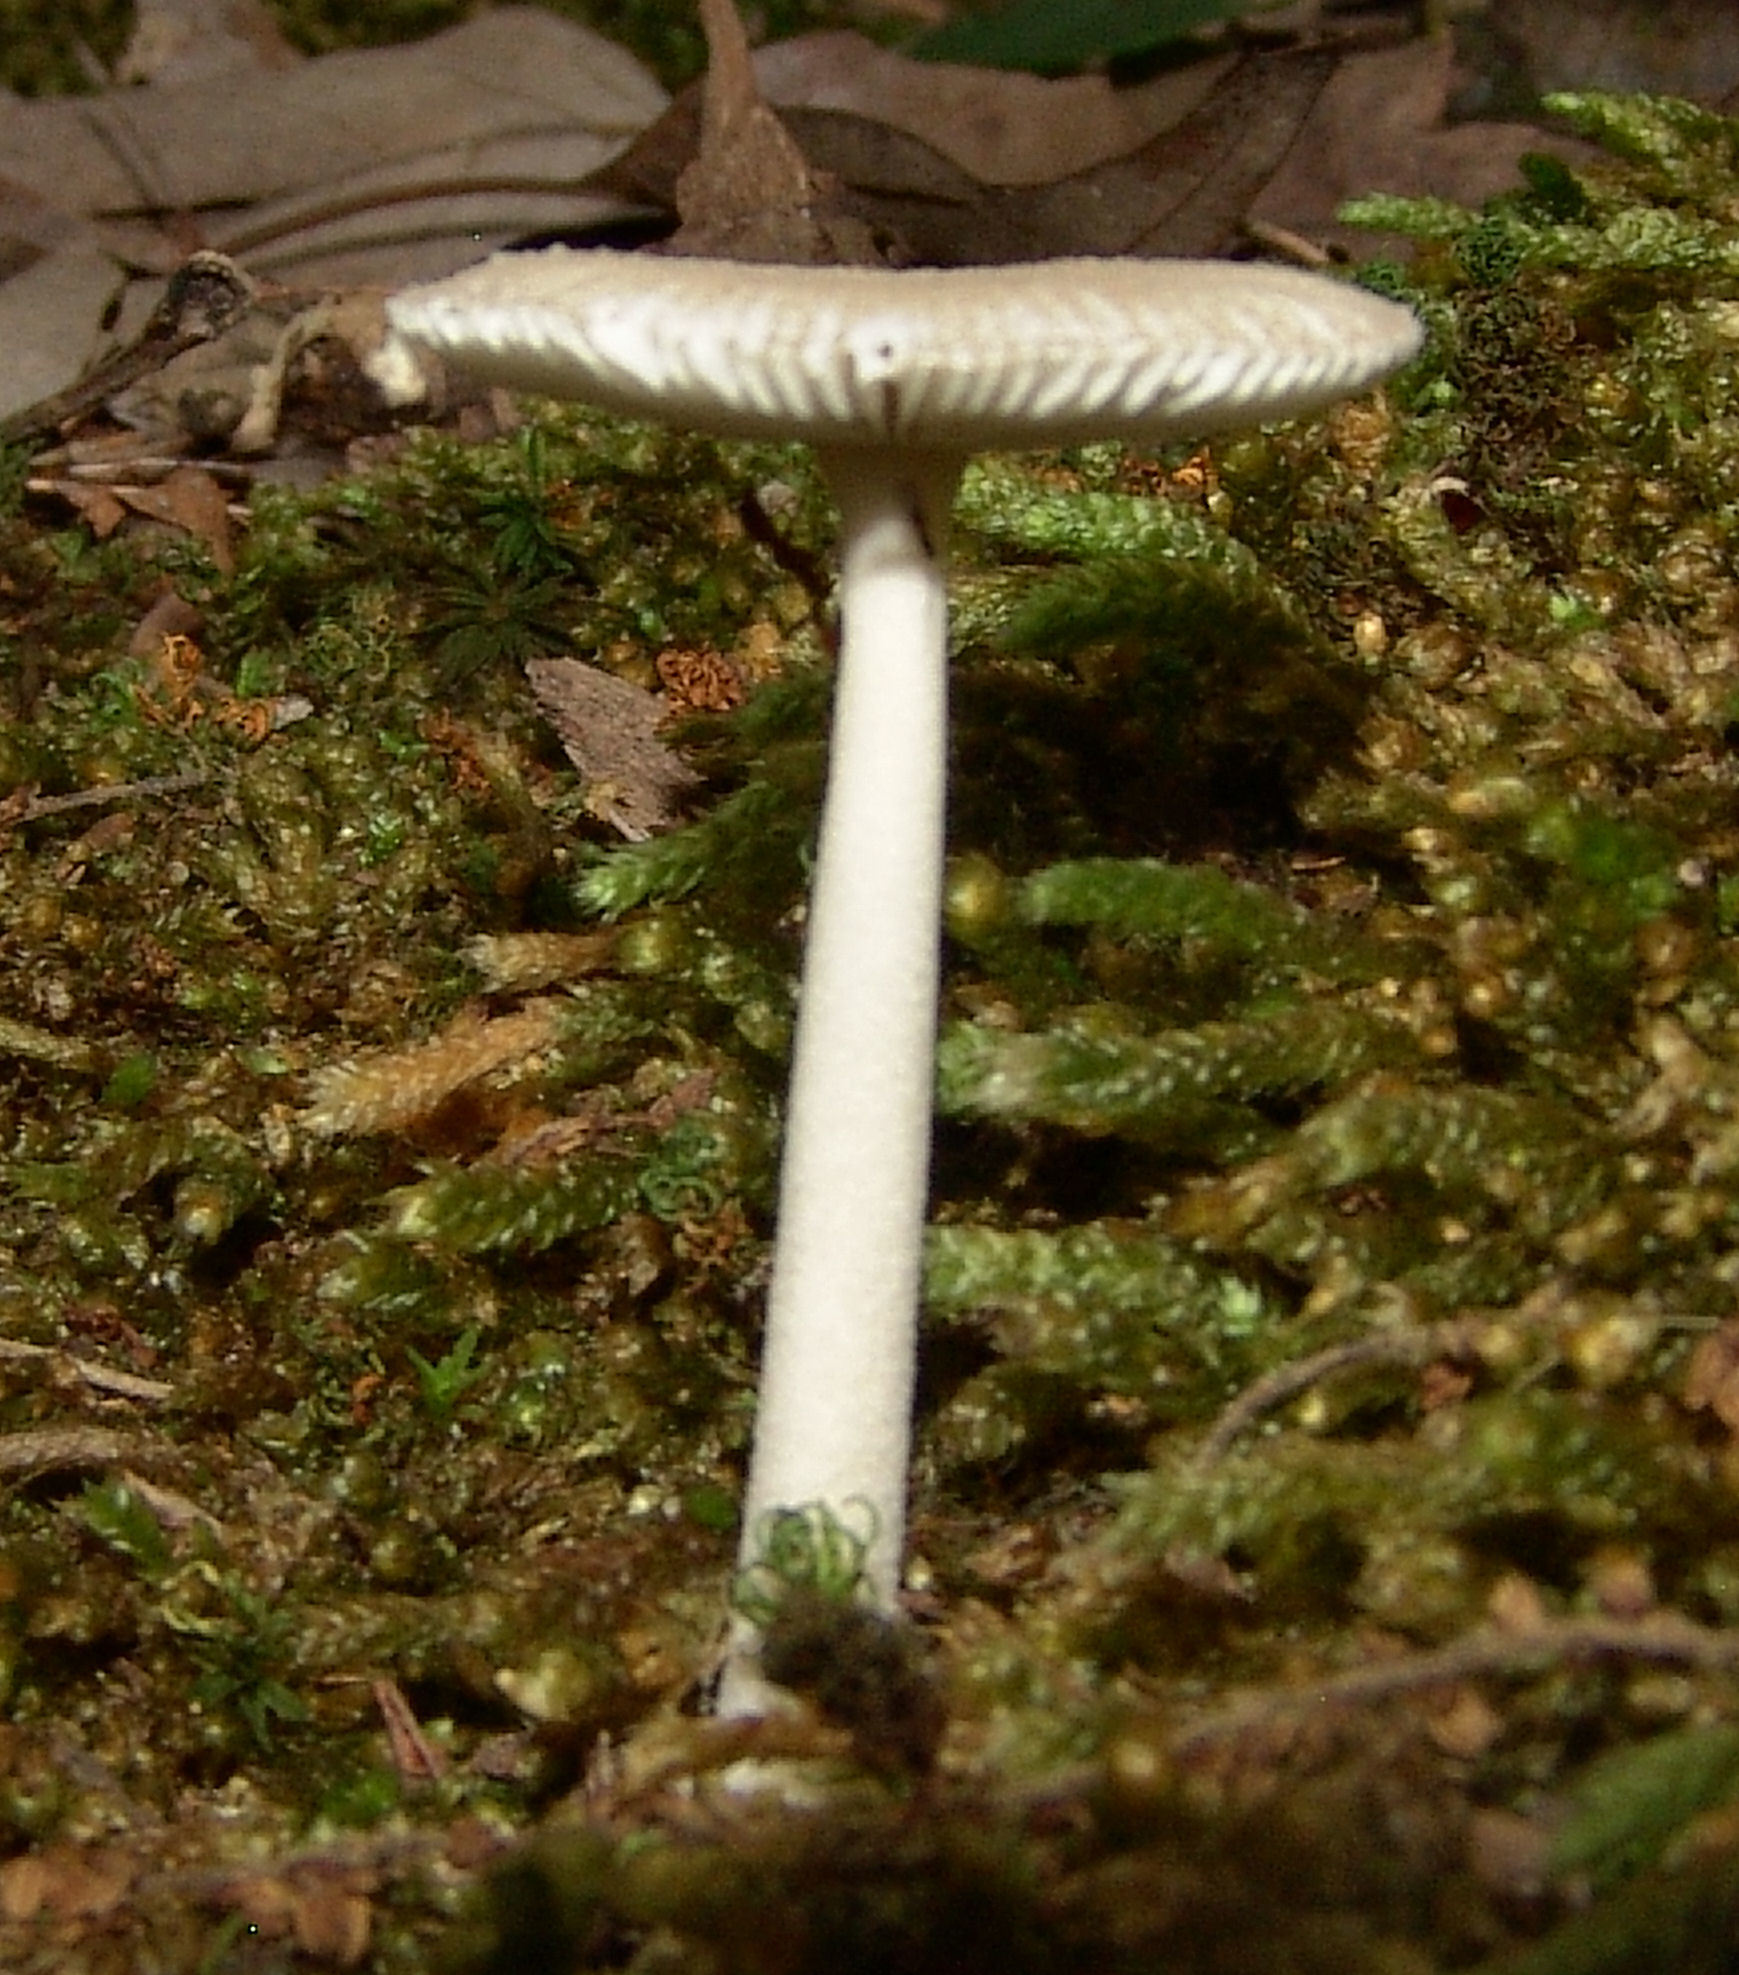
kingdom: Fungi
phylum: Basidiomycota
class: Agaricomycetes
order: Agaricales
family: Amanitaceae
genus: Amanita
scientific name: Amanita farinosa
